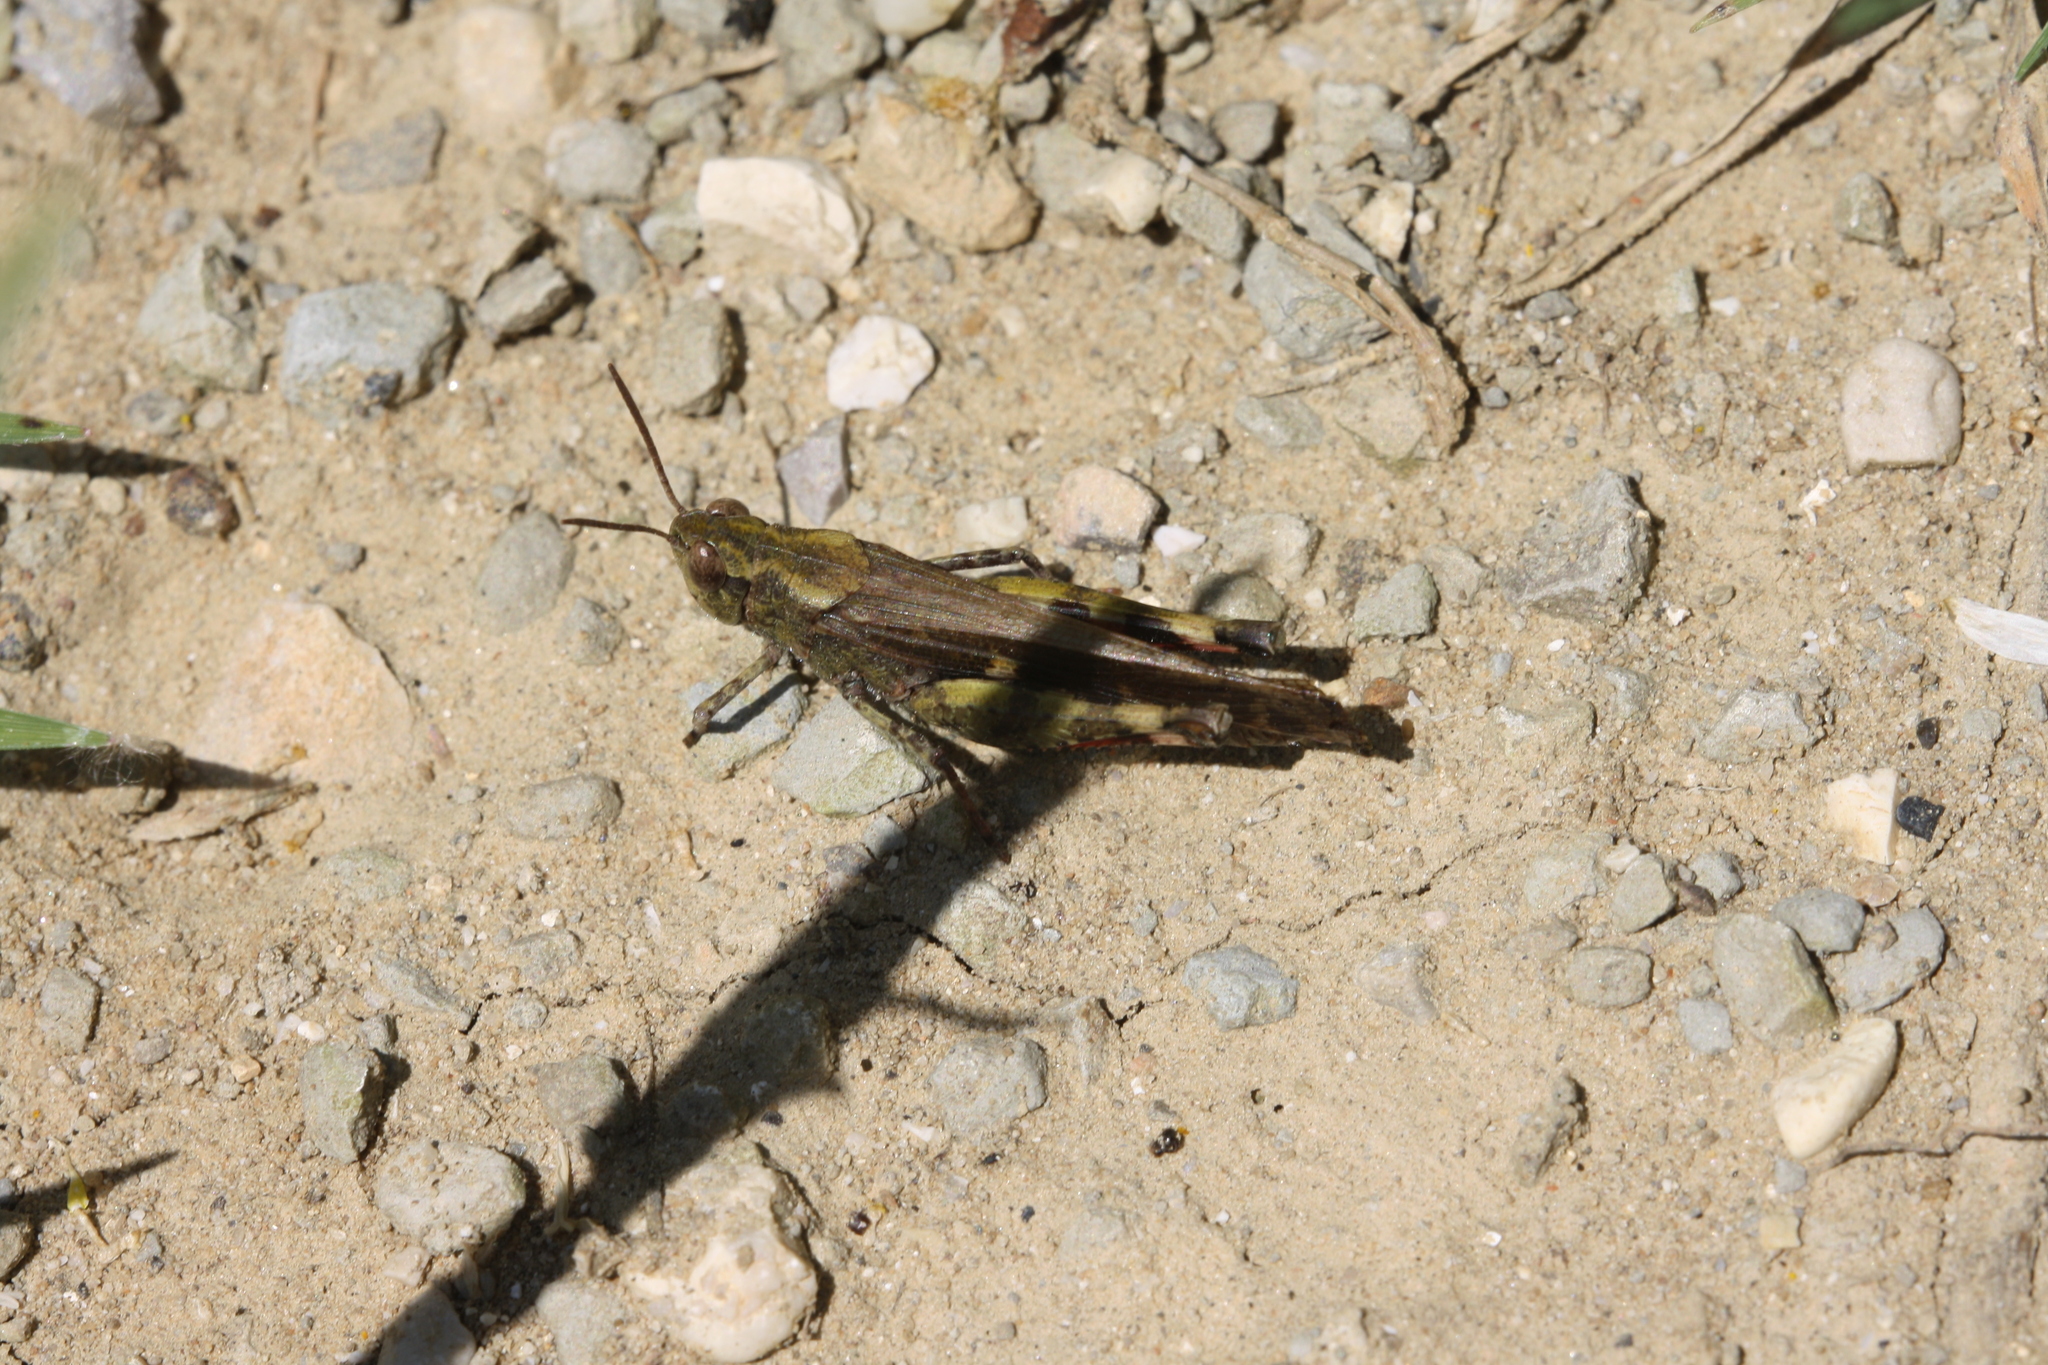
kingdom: Animalia
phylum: Arthropoda
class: Insecta
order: Orthoptera
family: Acrididae
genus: Aiolopus
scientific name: Aiolopus strepens
